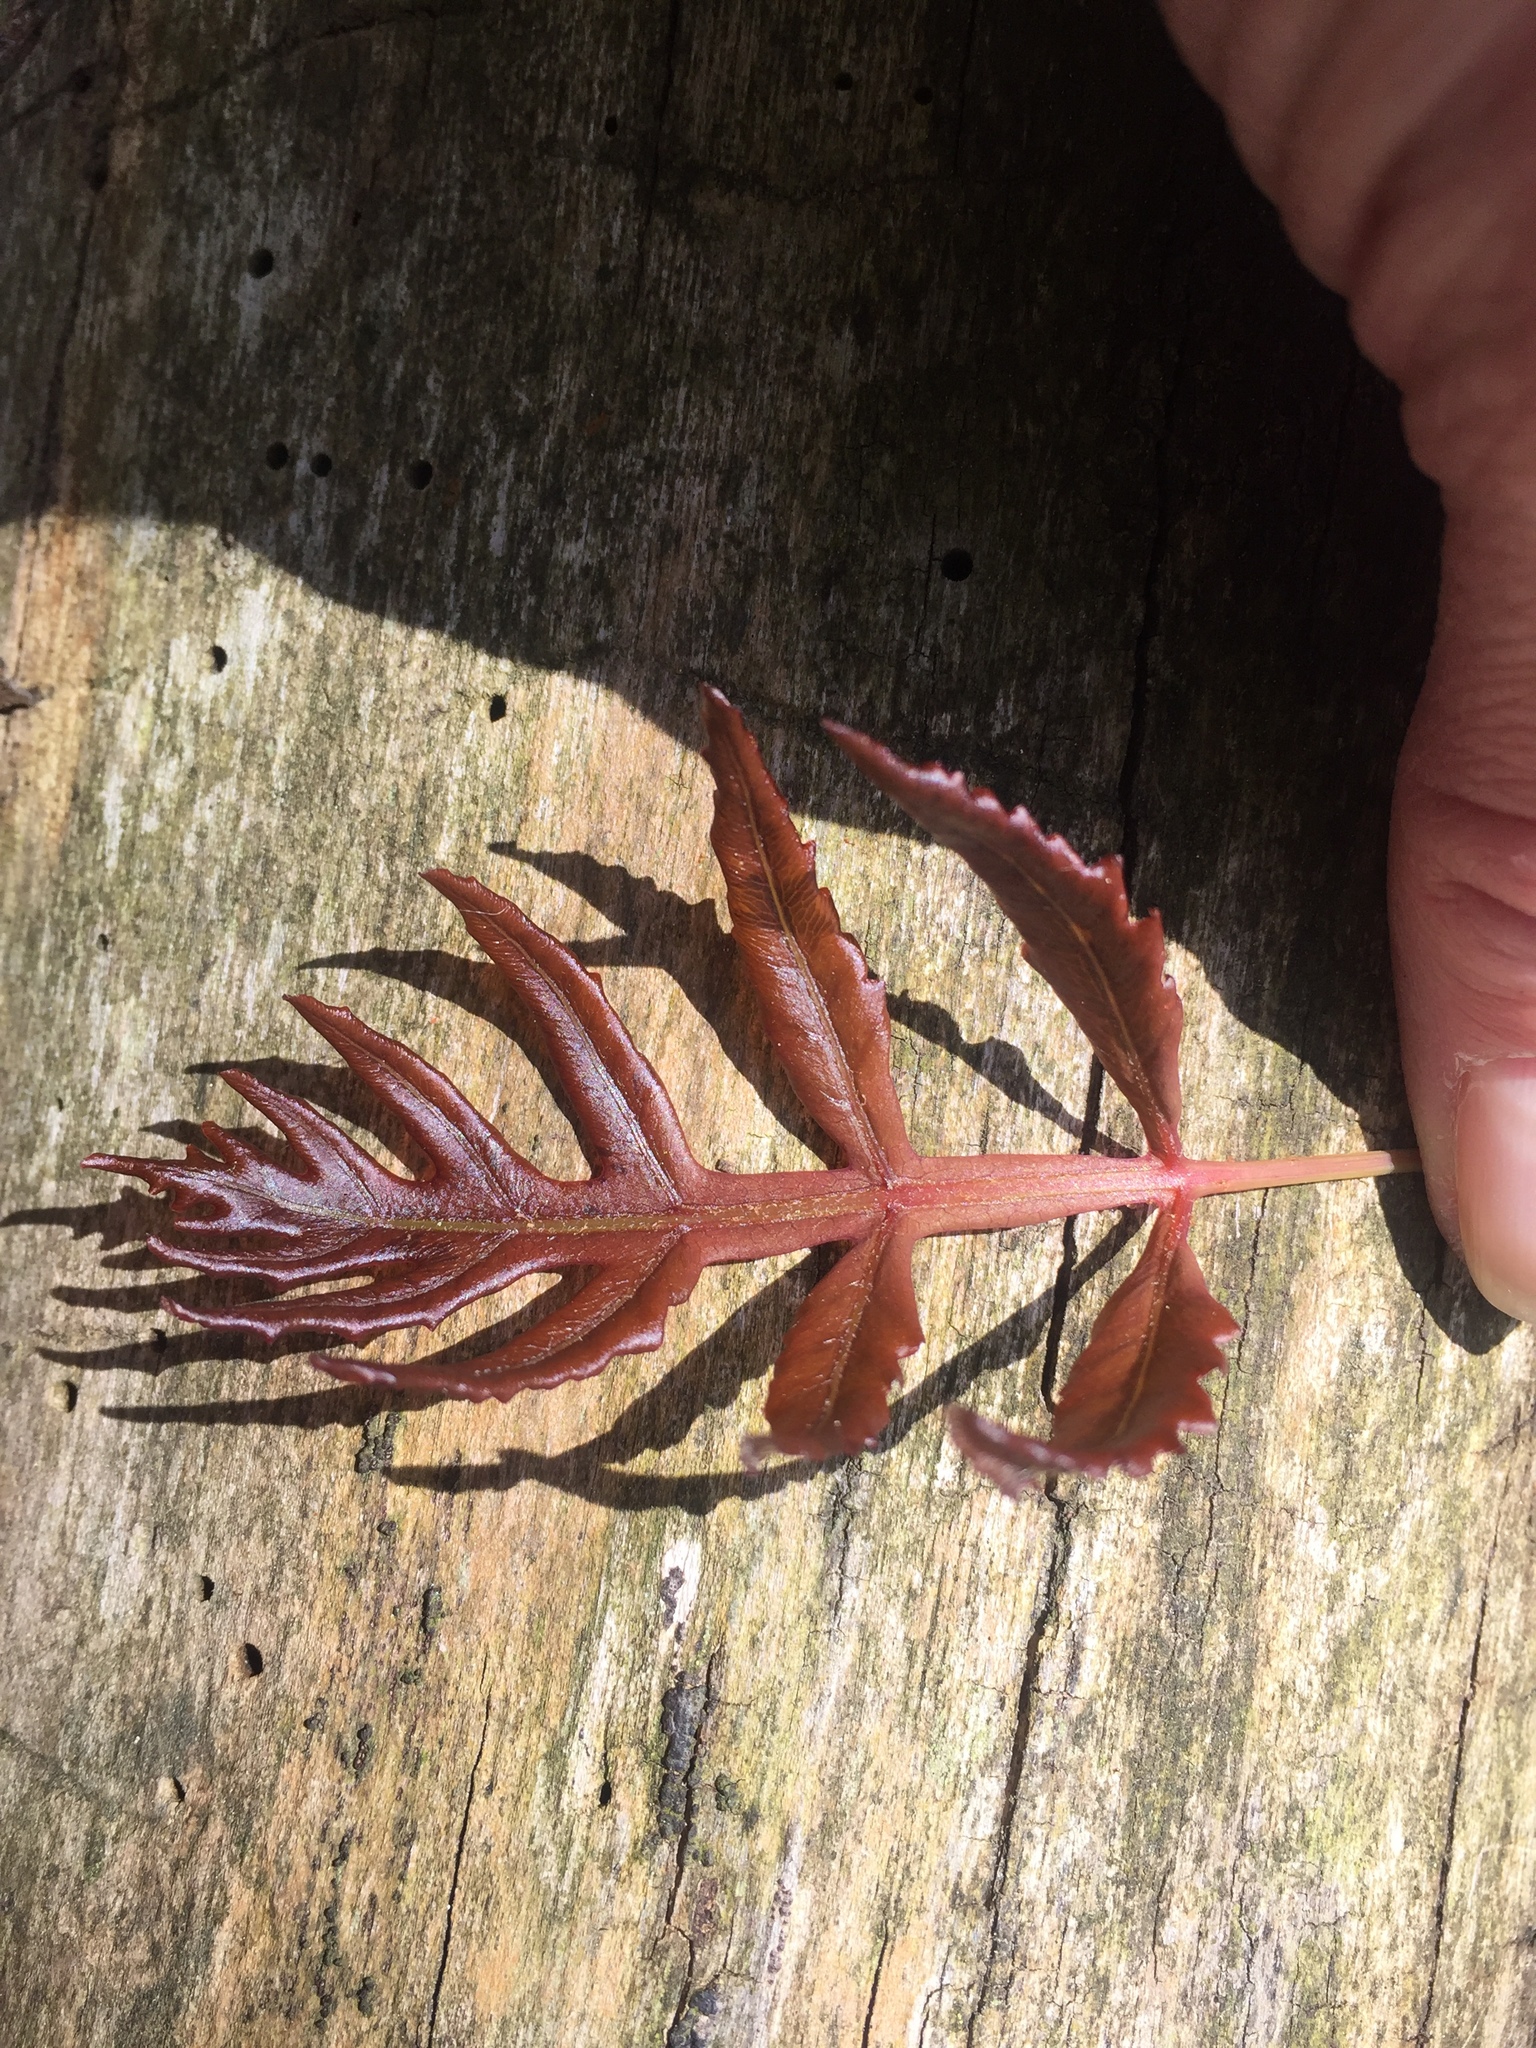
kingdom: Plantae
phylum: Tracheophyta
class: Polypodiopsida
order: Polypodiales
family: Onocleaceae
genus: Onoclea
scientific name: Onoclea sensibilis
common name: Sensitive fern
